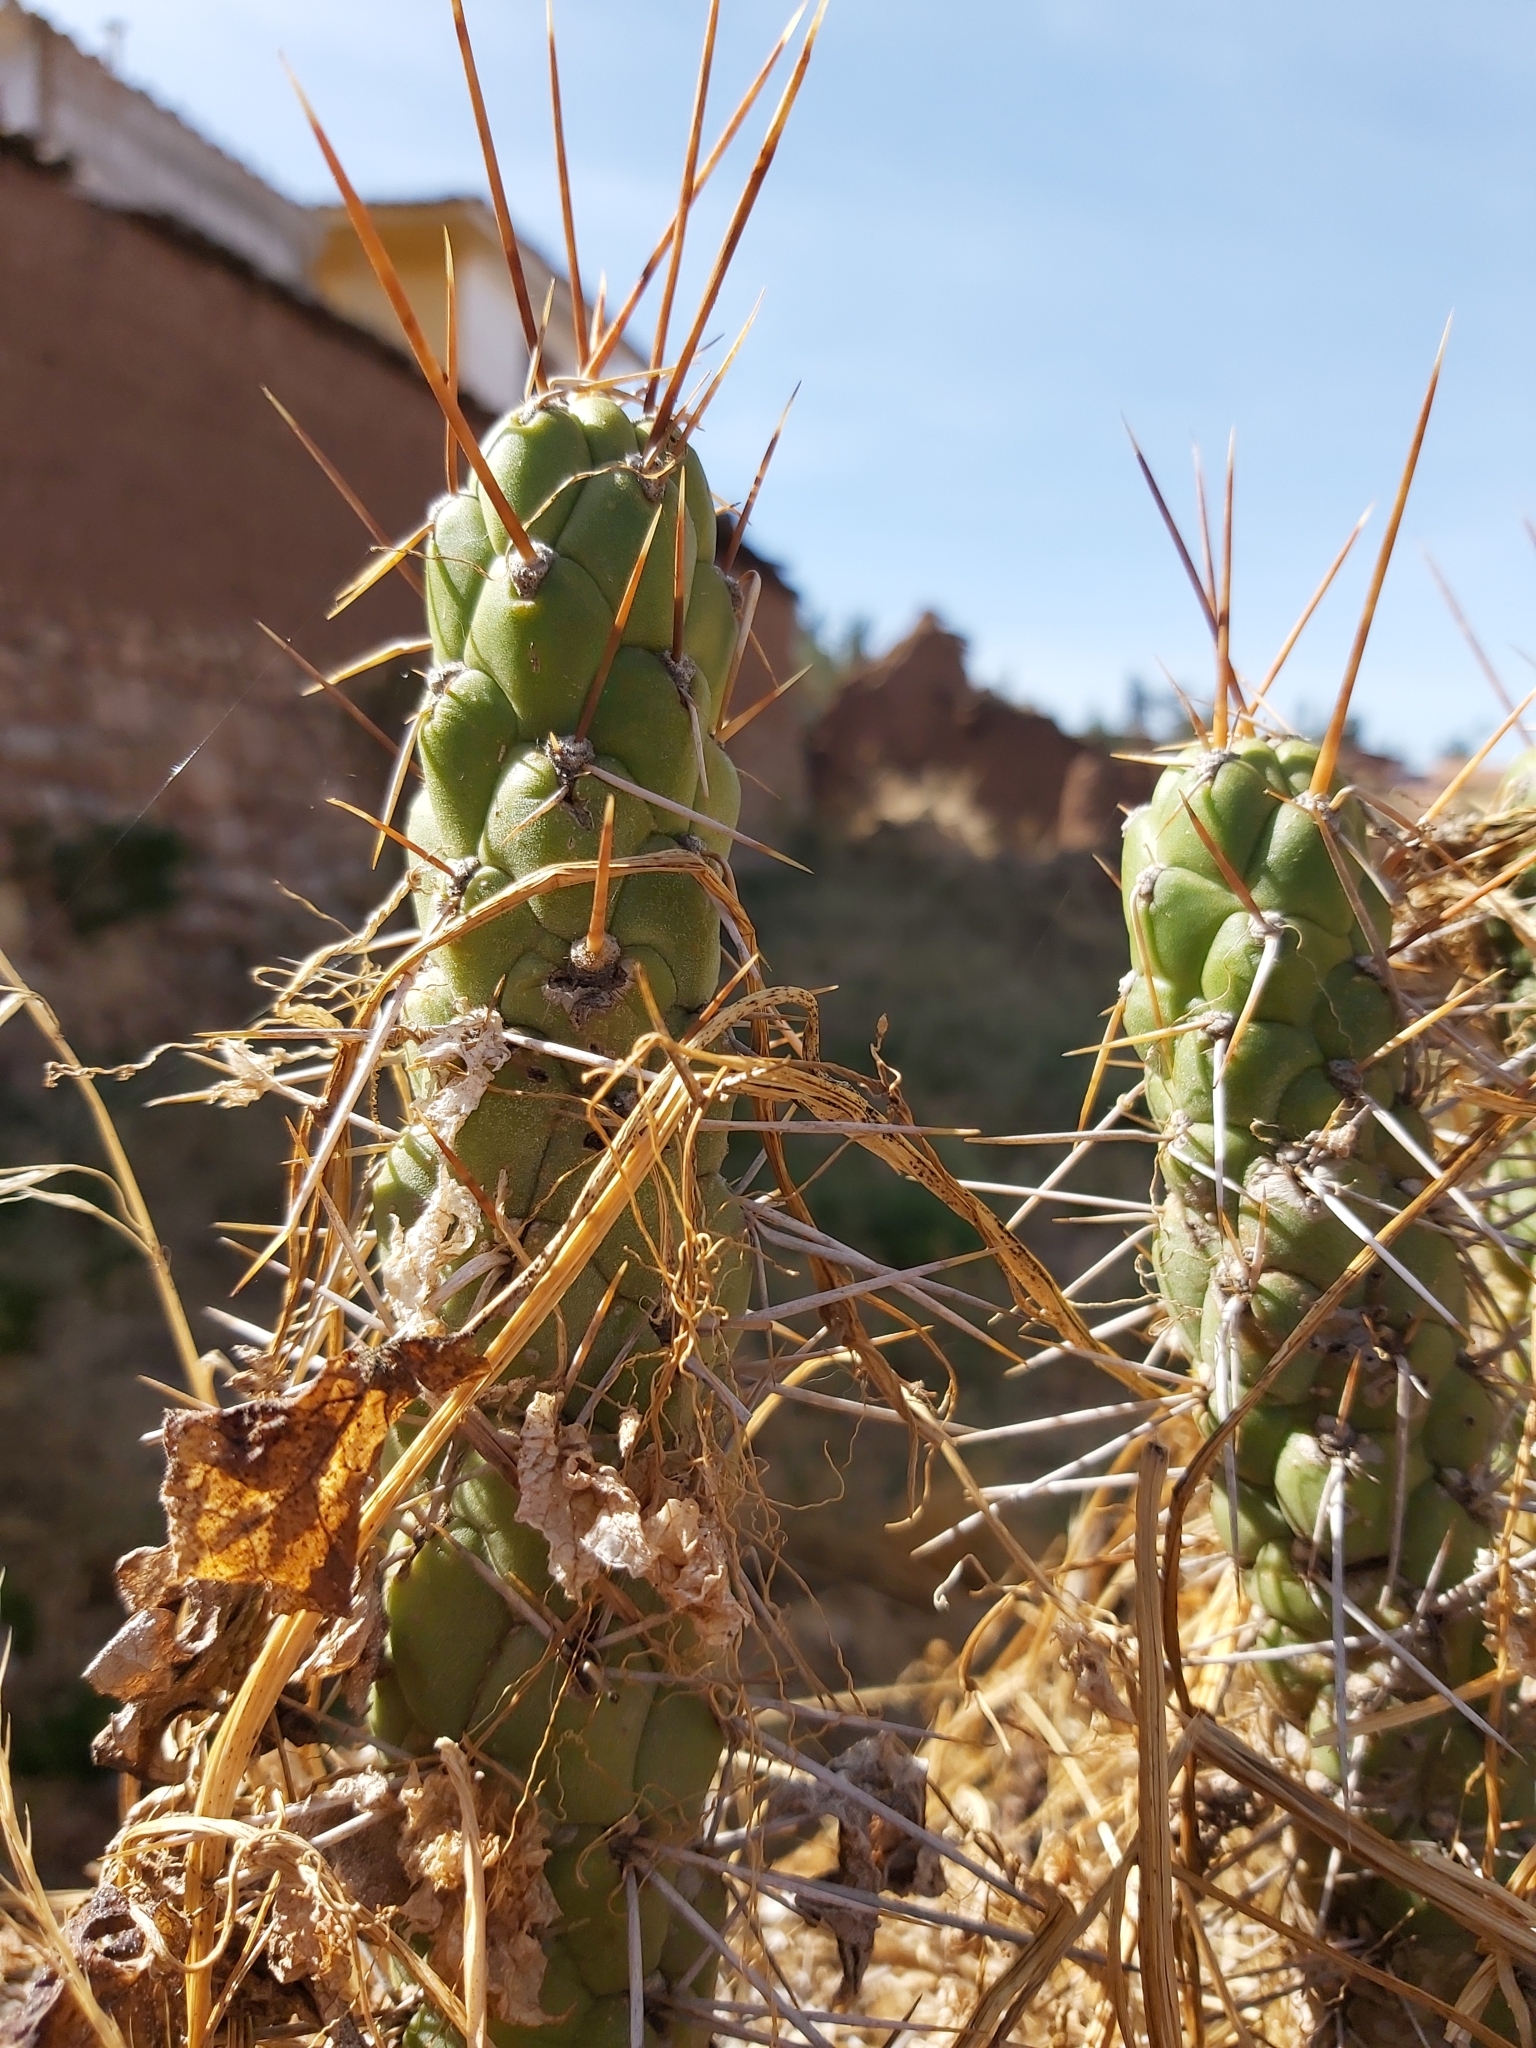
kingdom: Plantae
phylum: Tracheophyta
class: Magnoliopsida
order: Caryophyllales
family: Cactaceae
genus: Austrocylindropuntia
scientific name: Austrocylindropuntia subulata
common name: Eve's needle cactus
